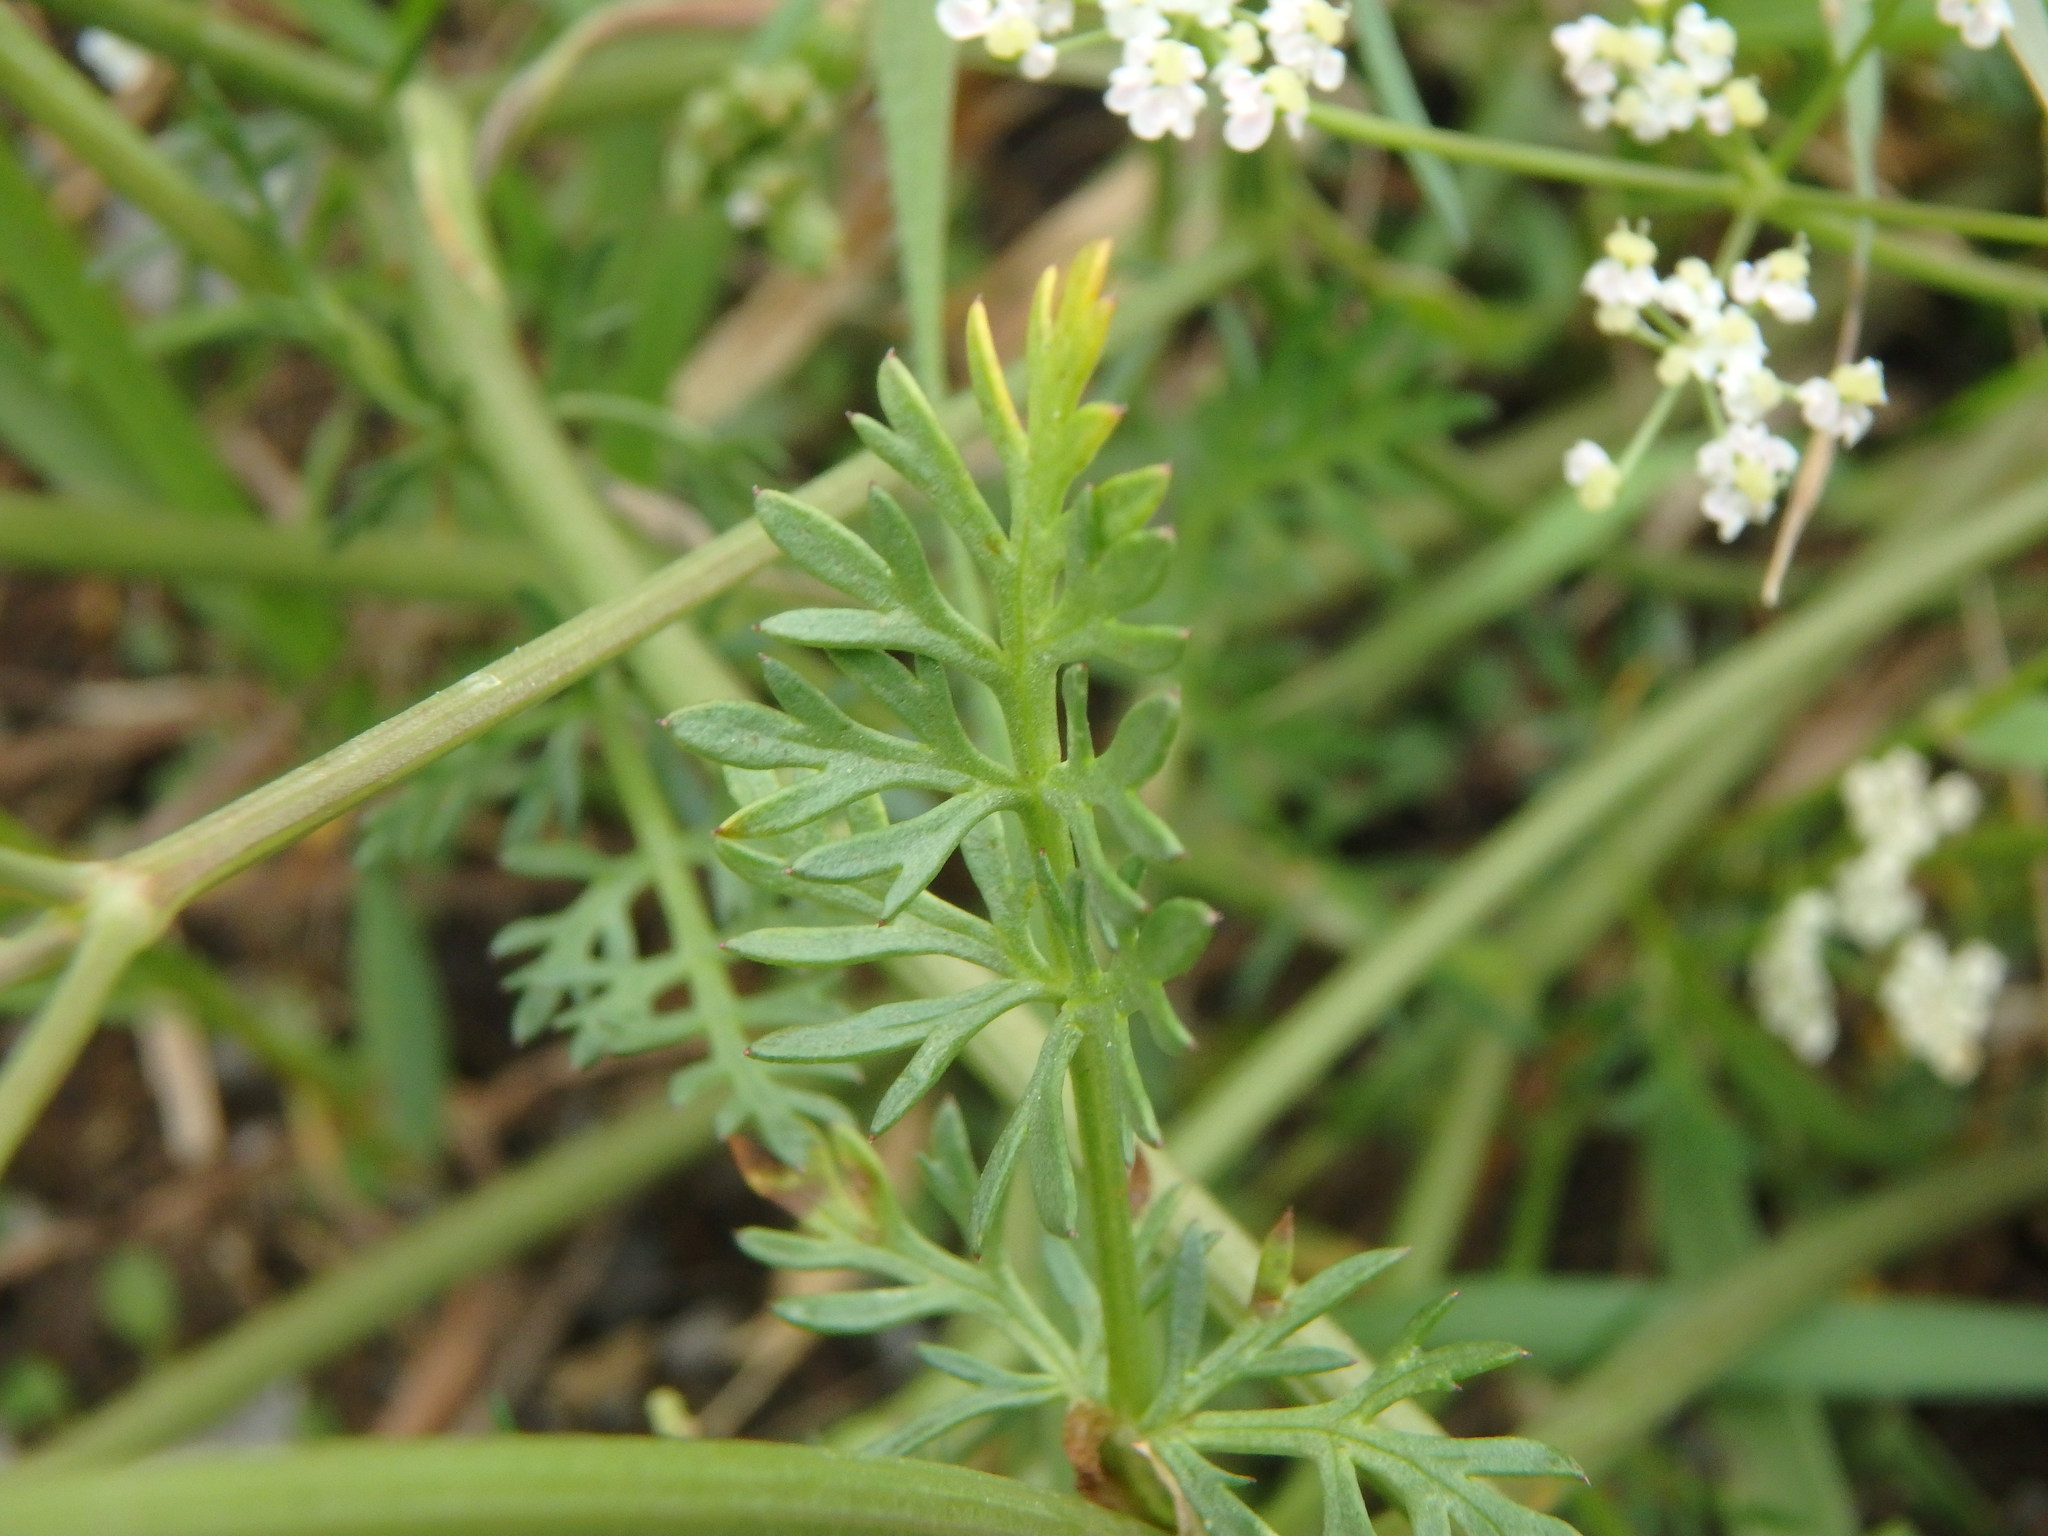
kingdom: Plantae
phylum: Tracheophyta
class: Magnoliopsida
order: Apiales
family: Apiaceae
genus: Carum
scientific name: Carum carvi
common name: Caraway
